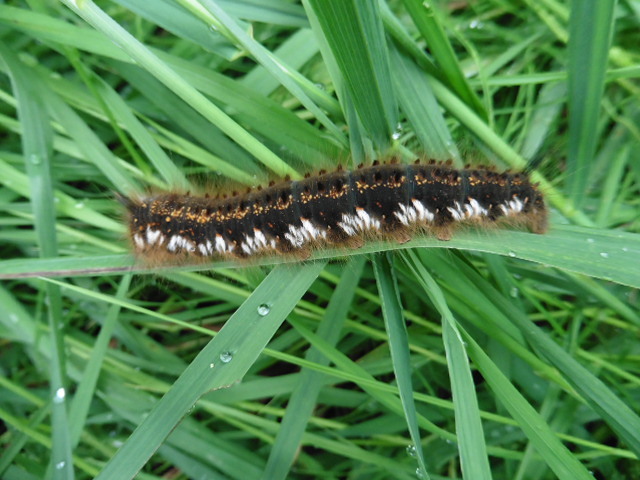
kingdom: Animalia
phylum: Arthropoda
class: Insecta
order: Lepidoptera
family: Lasiocampidae
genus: Euthrix
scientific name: Euthrix potatoria
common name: Drinker
